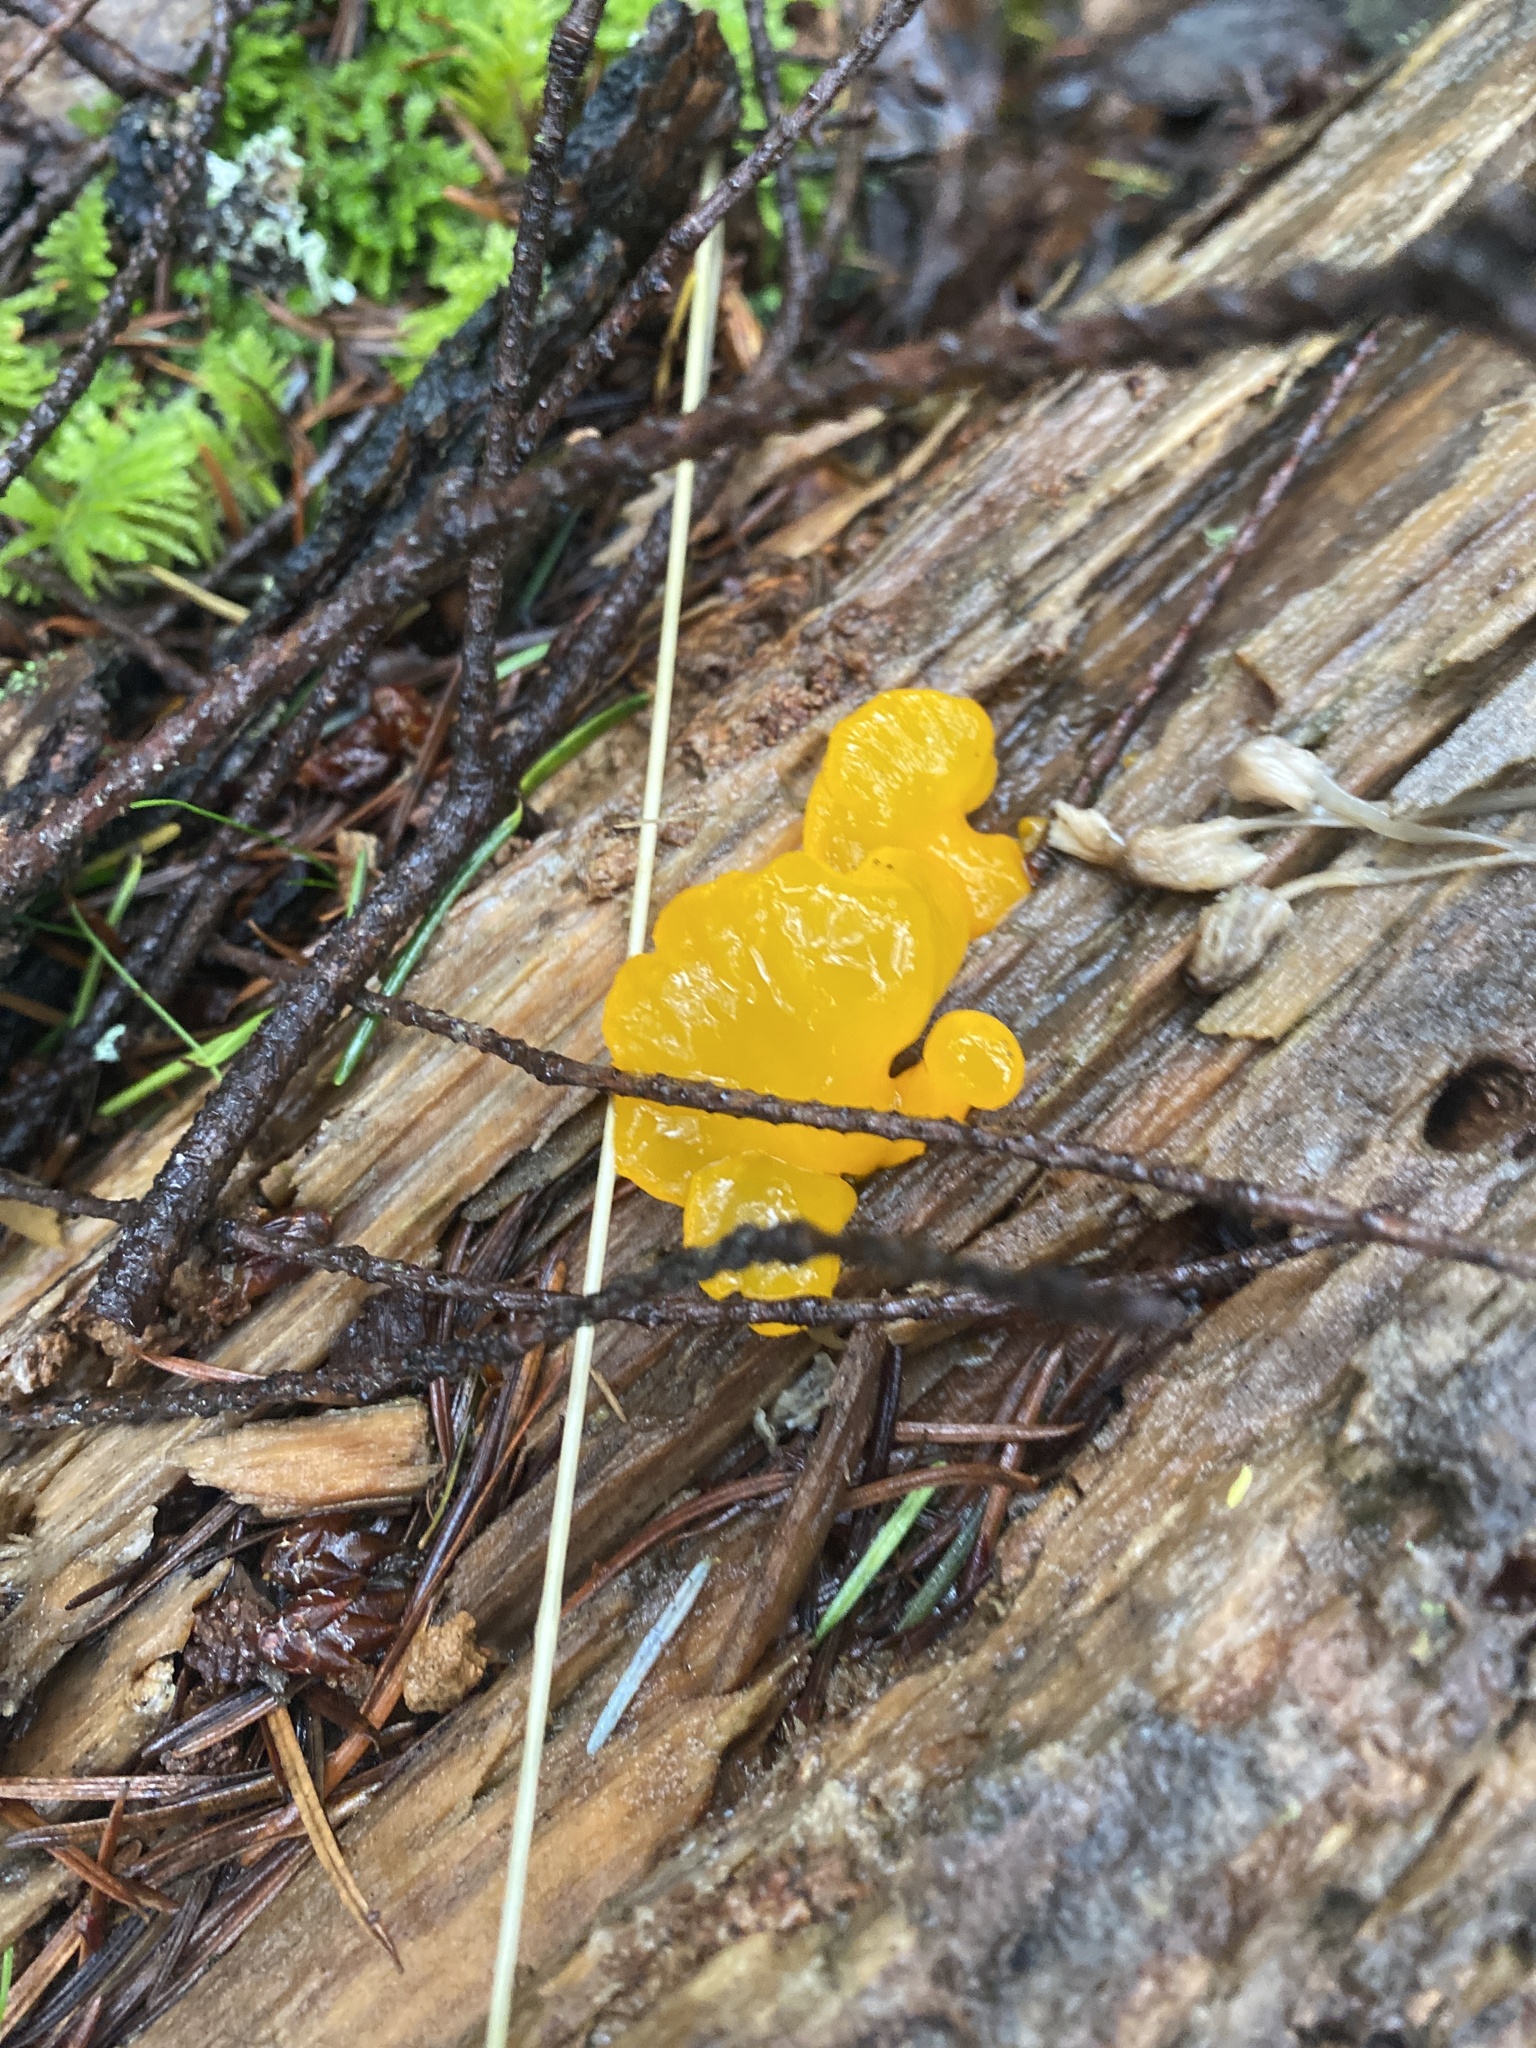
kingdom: Fungi
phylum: Basidiomycota
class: Dacrymycetes
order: Dacrymycetales
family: Dacrymycetaceae
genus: Dacrymyces
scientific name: Dacrymyces chrysospermus
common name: Orange jelly spot
